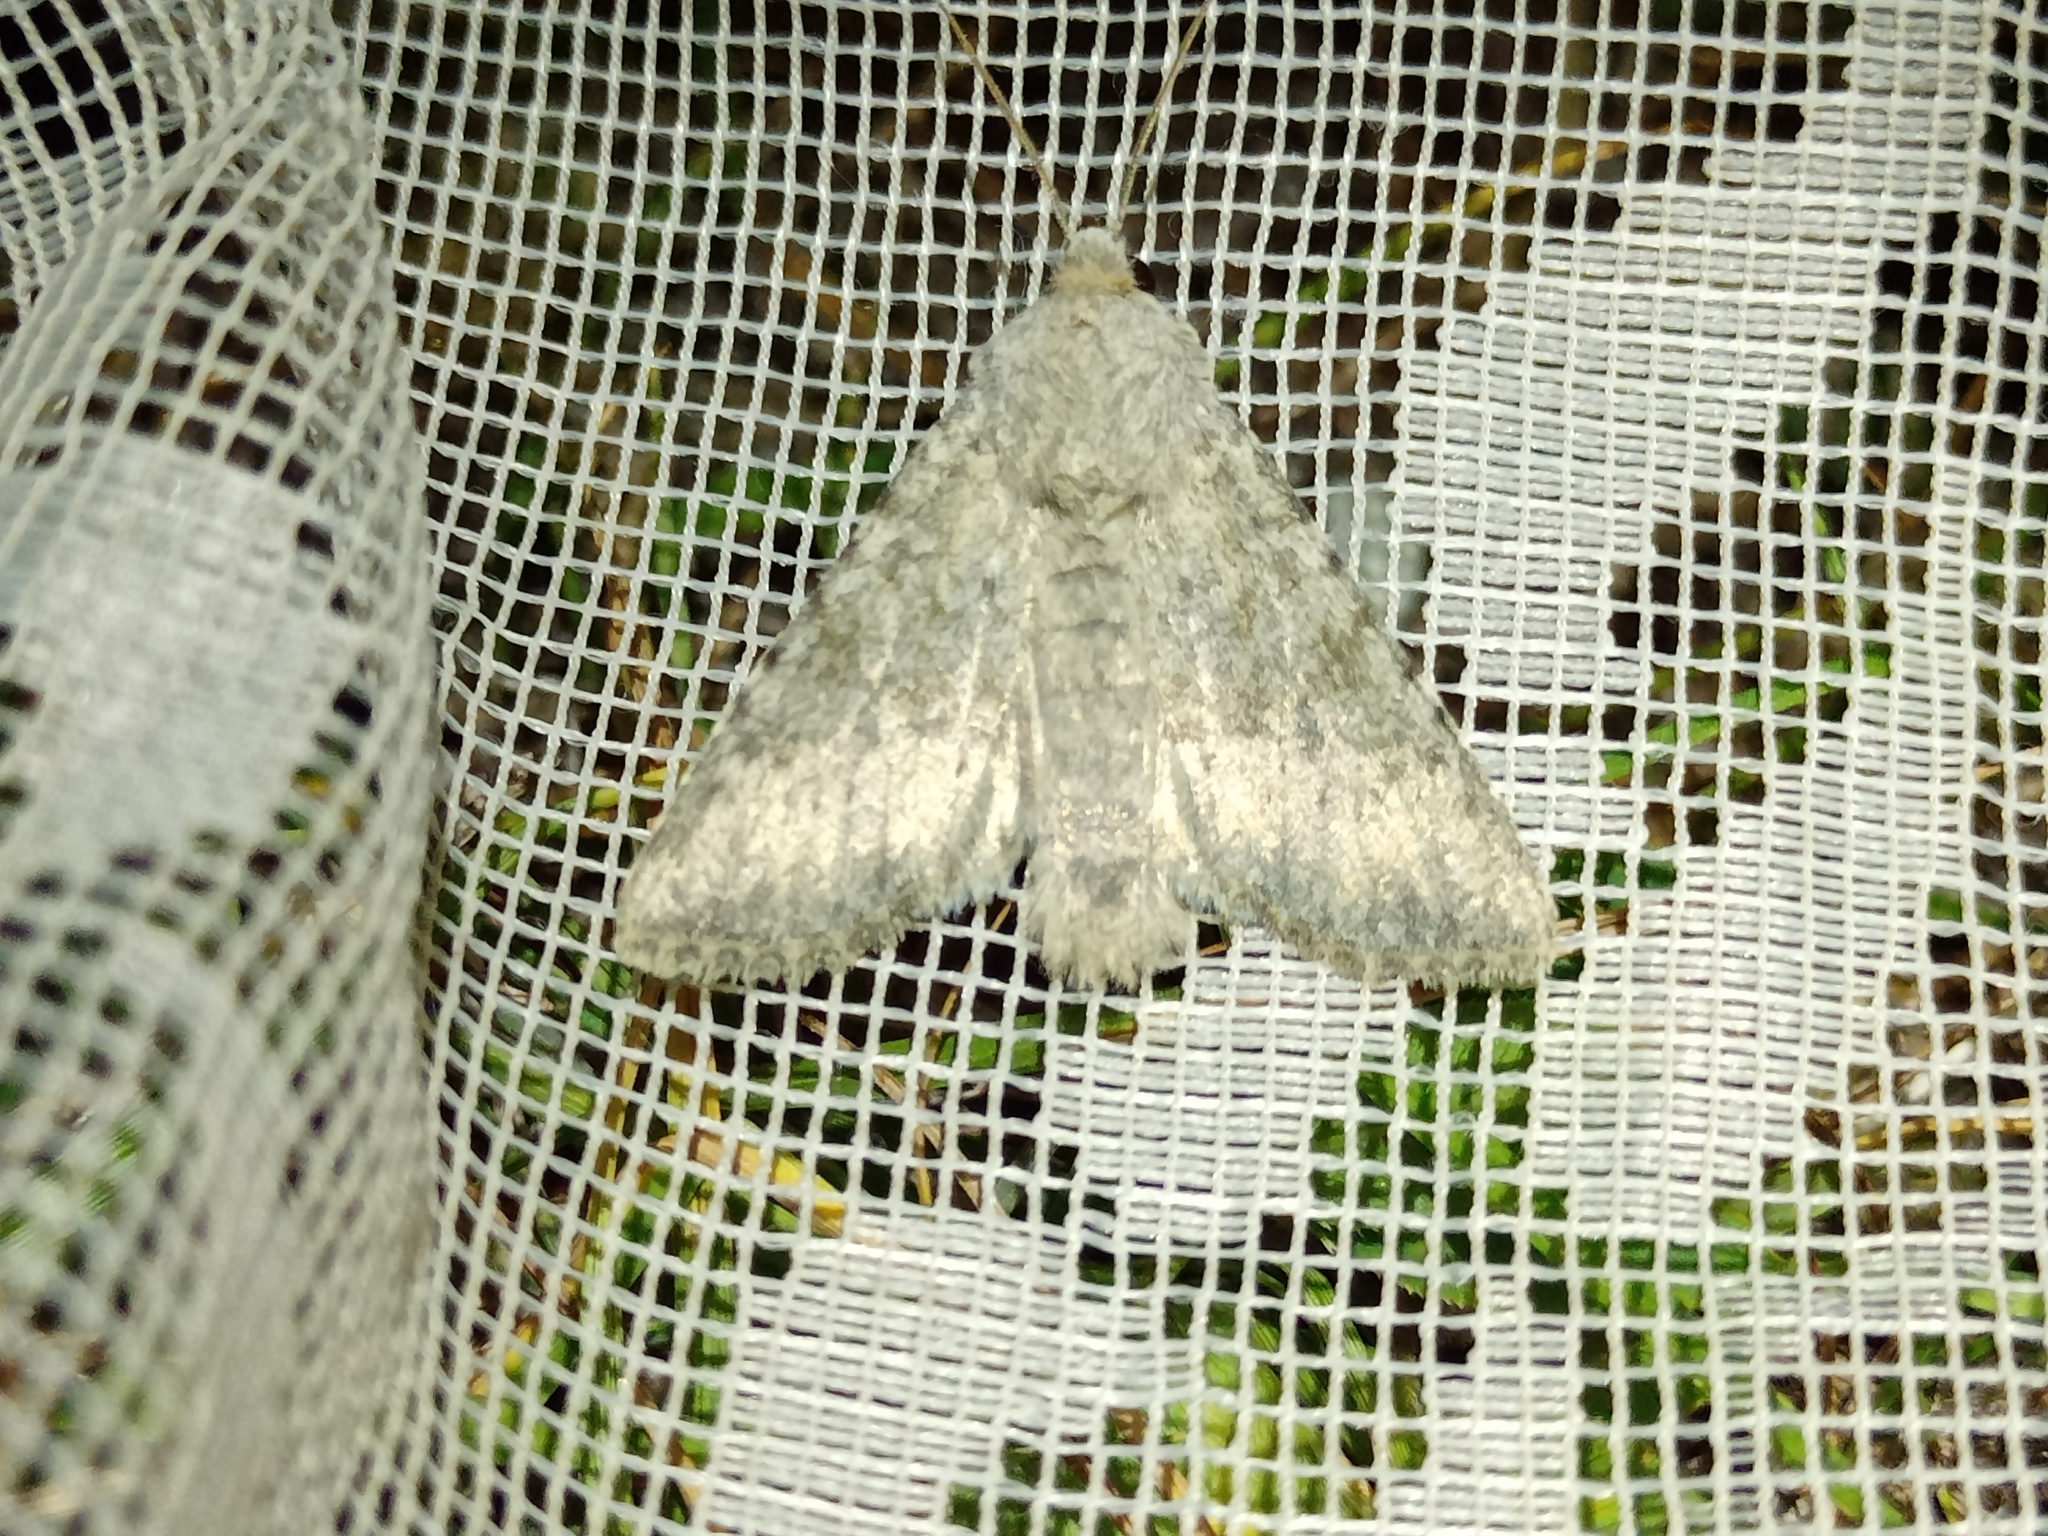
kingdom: Animalia
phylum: Arthropoda
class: Insecta
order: Lepidoptera
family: Noctuidae
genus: Apamea
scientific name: Apamea platinea
